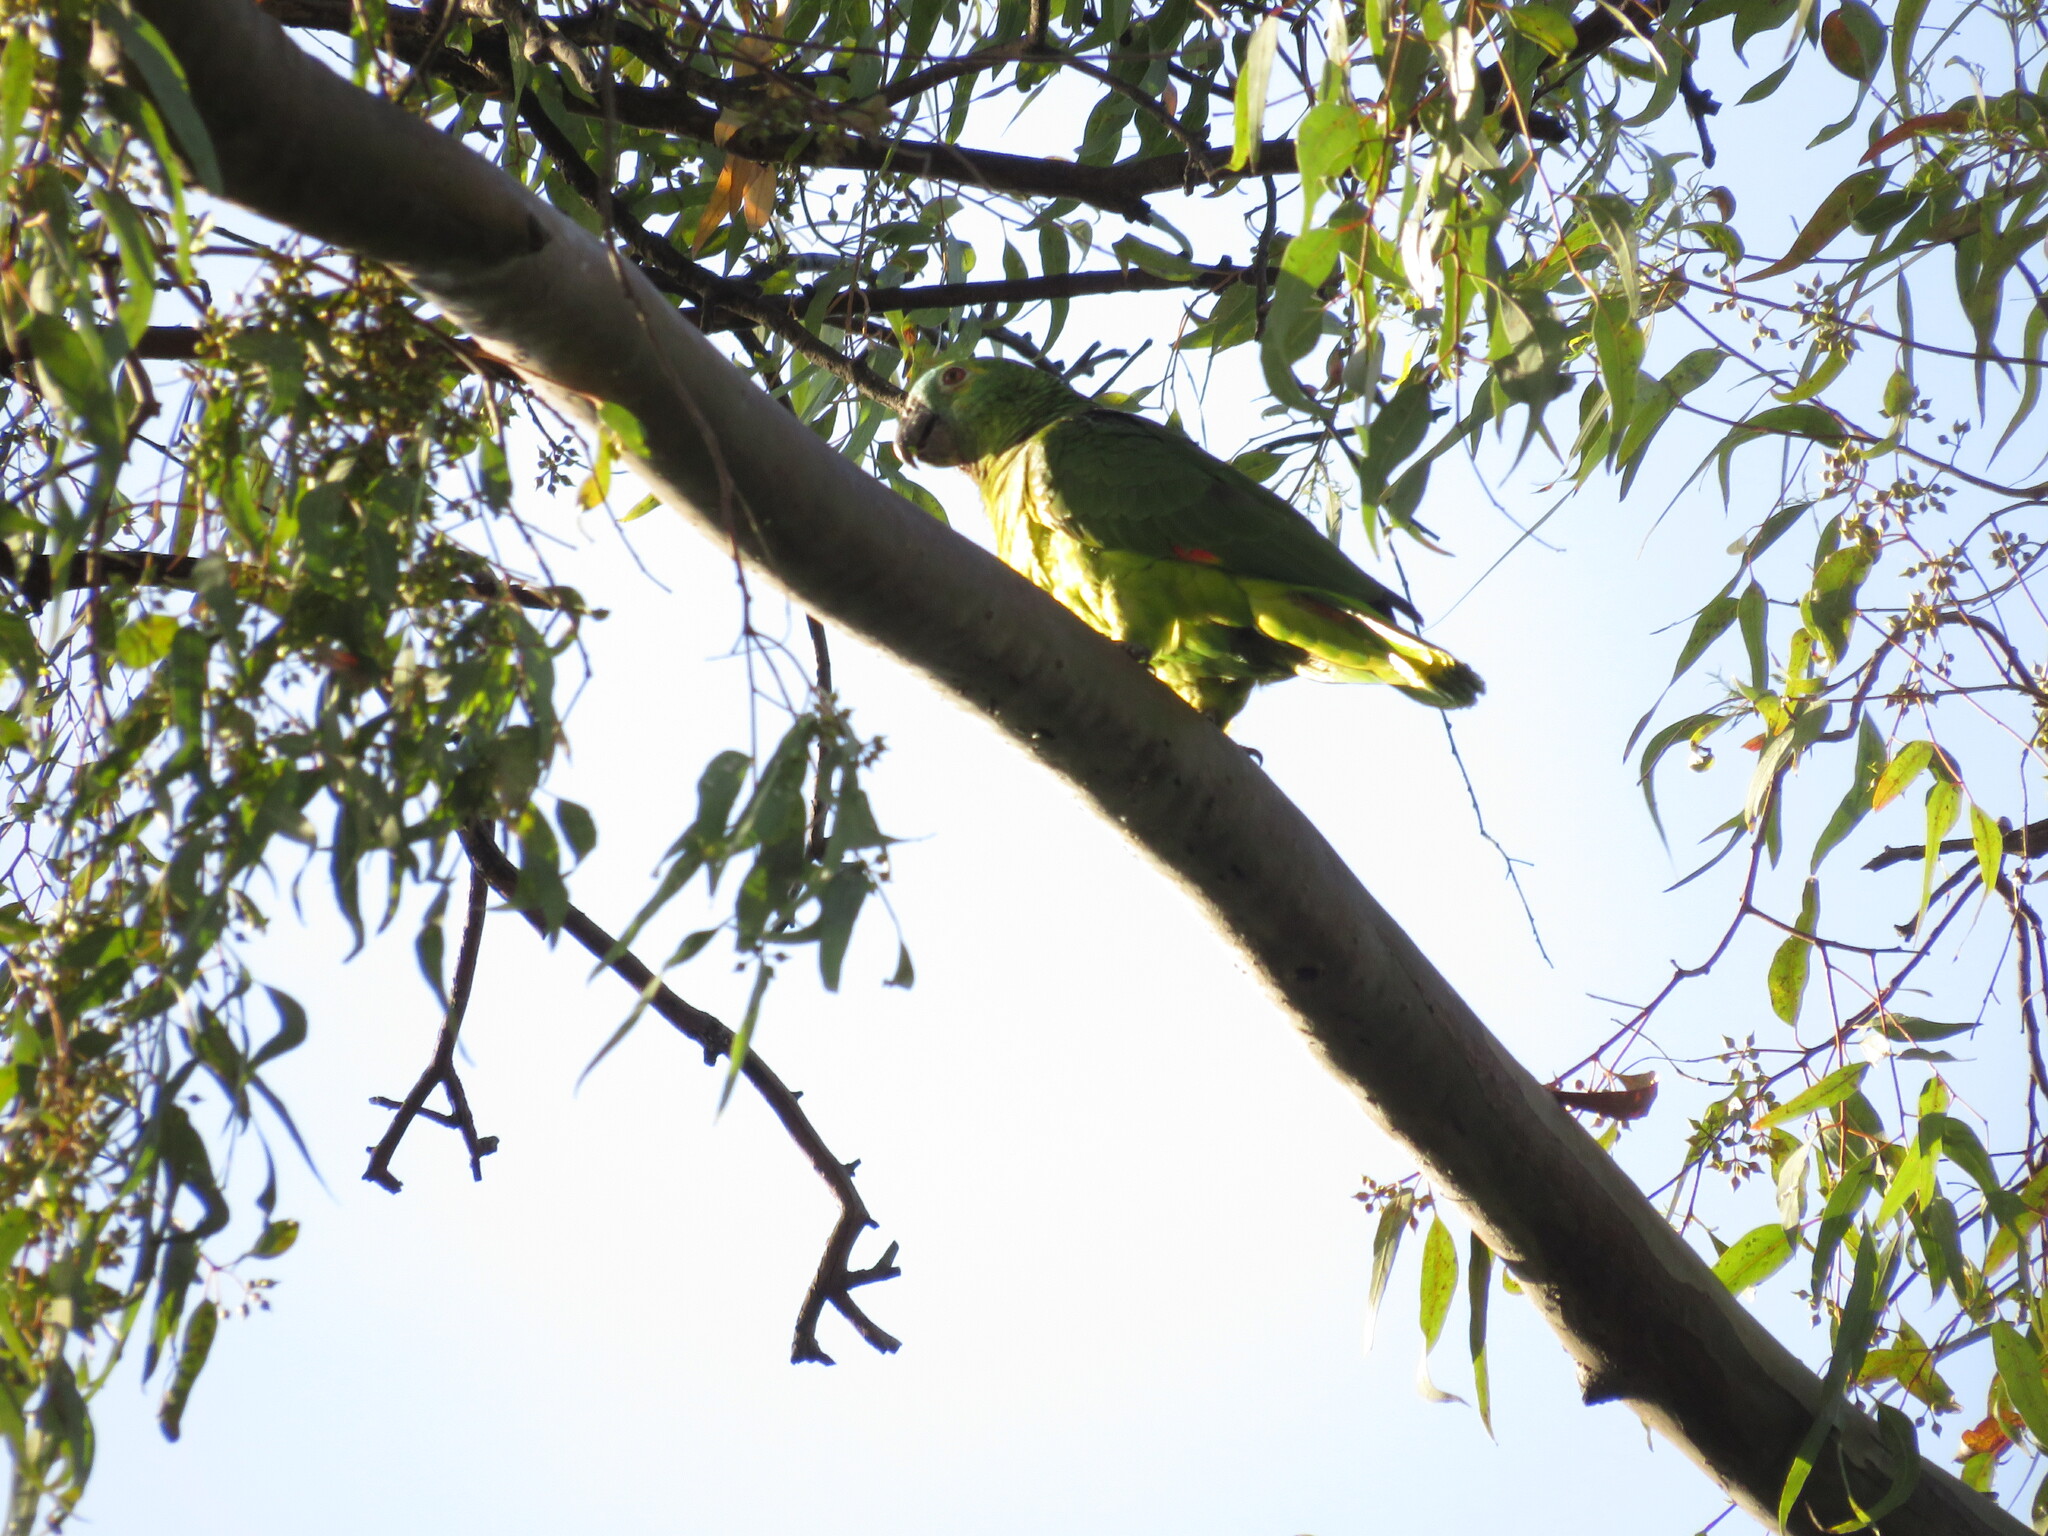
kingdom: Animalia
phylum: Chordata
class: Aves
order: Psittaciformes
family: Psittacidae
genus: Amazona
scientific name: Amazona aestiva
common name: Turquoise-fronted amazon
